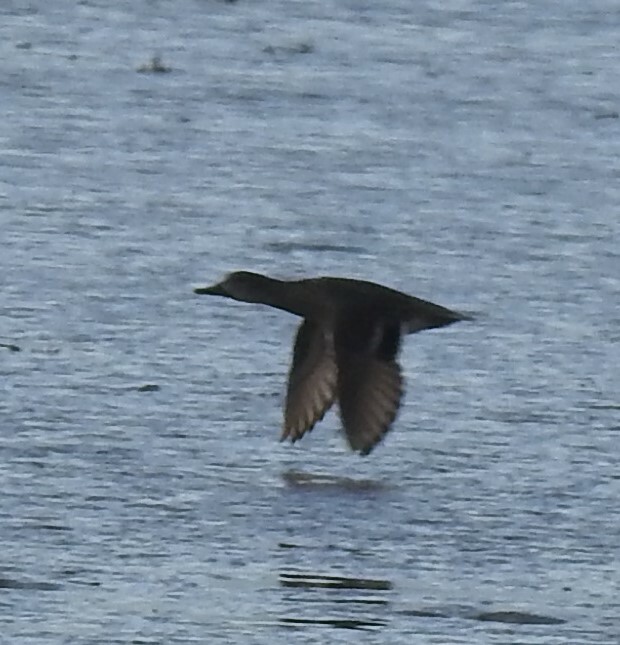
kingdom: Animalia
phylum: Chordata
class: Aves
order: Anseriformes
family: Anatidae
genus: Anas
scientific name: Anas crecca
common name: Eurasian teal
